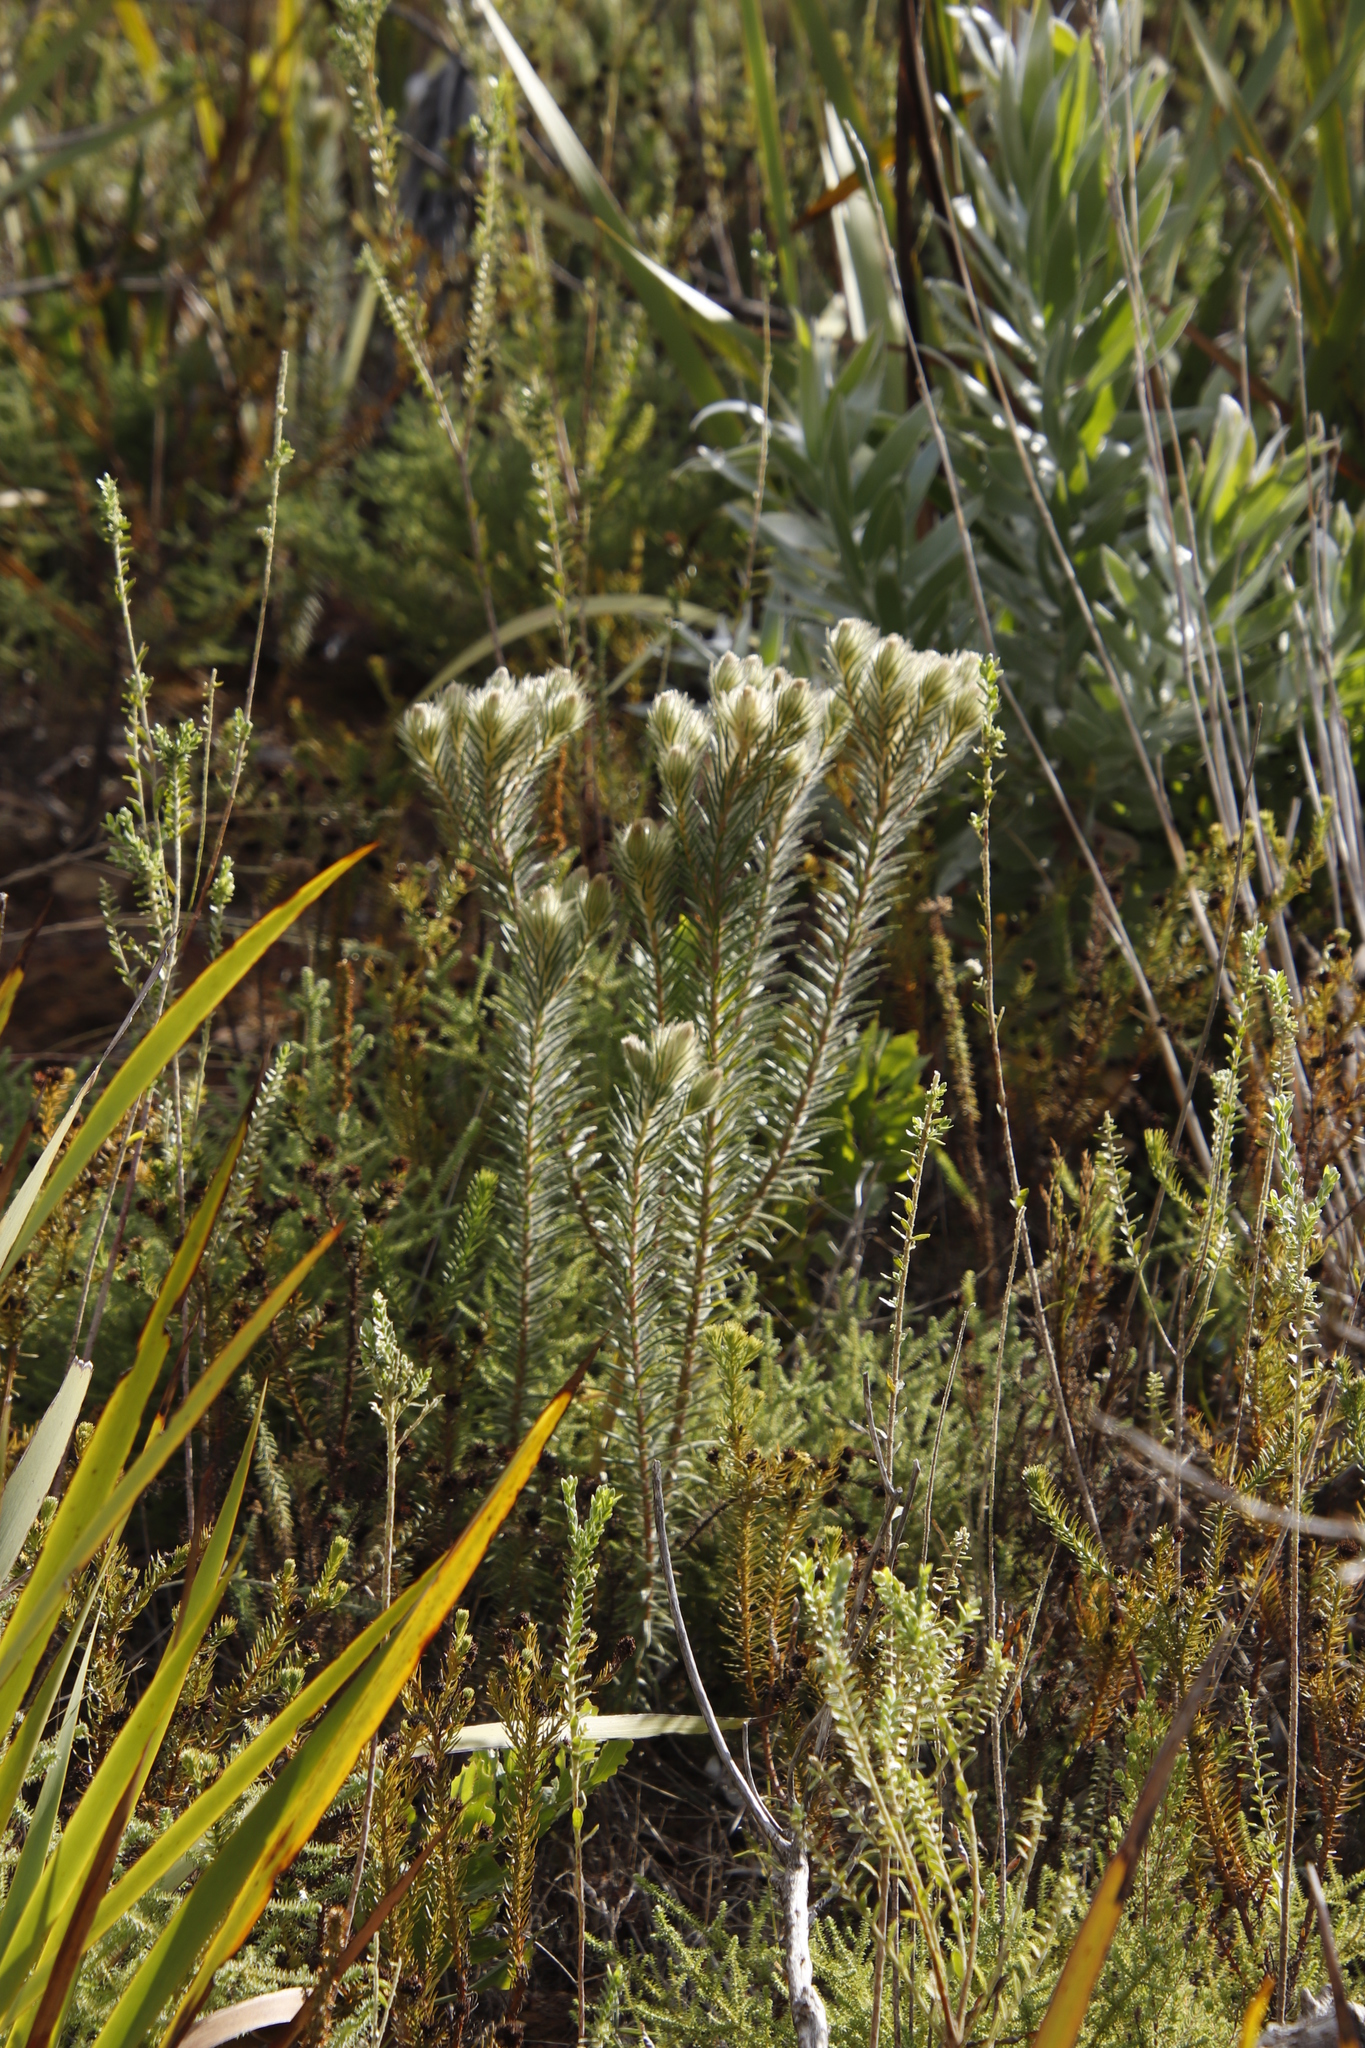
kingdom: Plantae
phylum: Tracheophyta
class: Magnoliopsida
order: Rosales
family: Rhamnaceae
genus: Phylica
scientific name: Phylica pubescens
